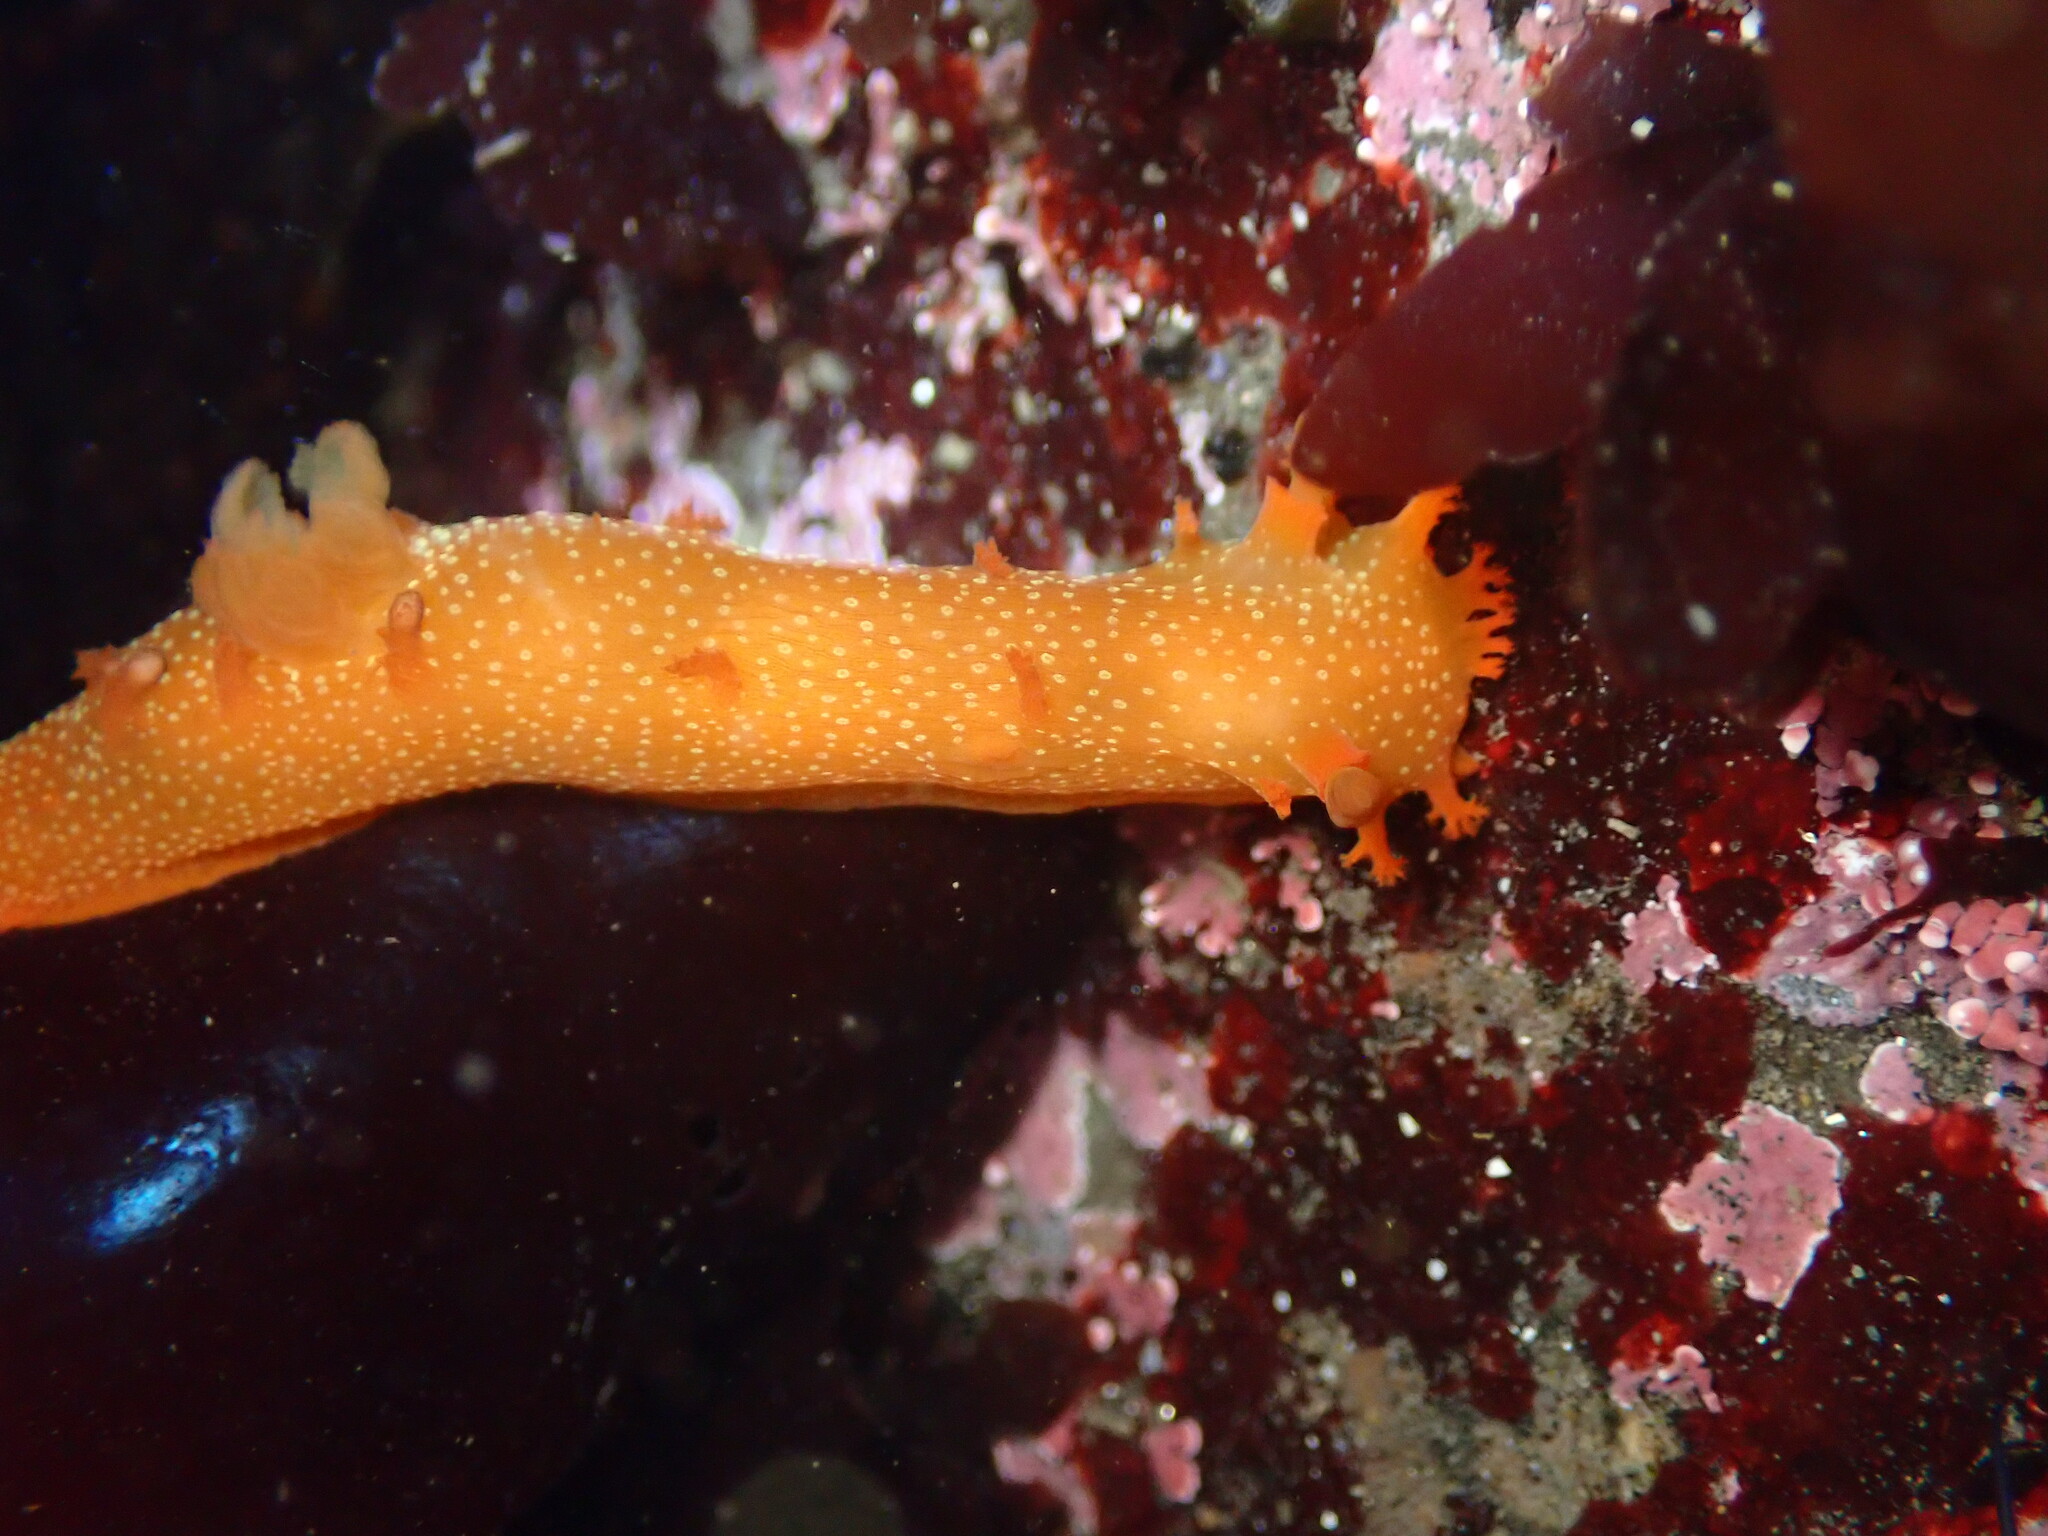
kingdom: Animalia
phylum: Mollusca
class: Gastropoda
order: Nudibranchia
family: Polyceridae
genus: Triopha
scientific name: Triopha maculata
